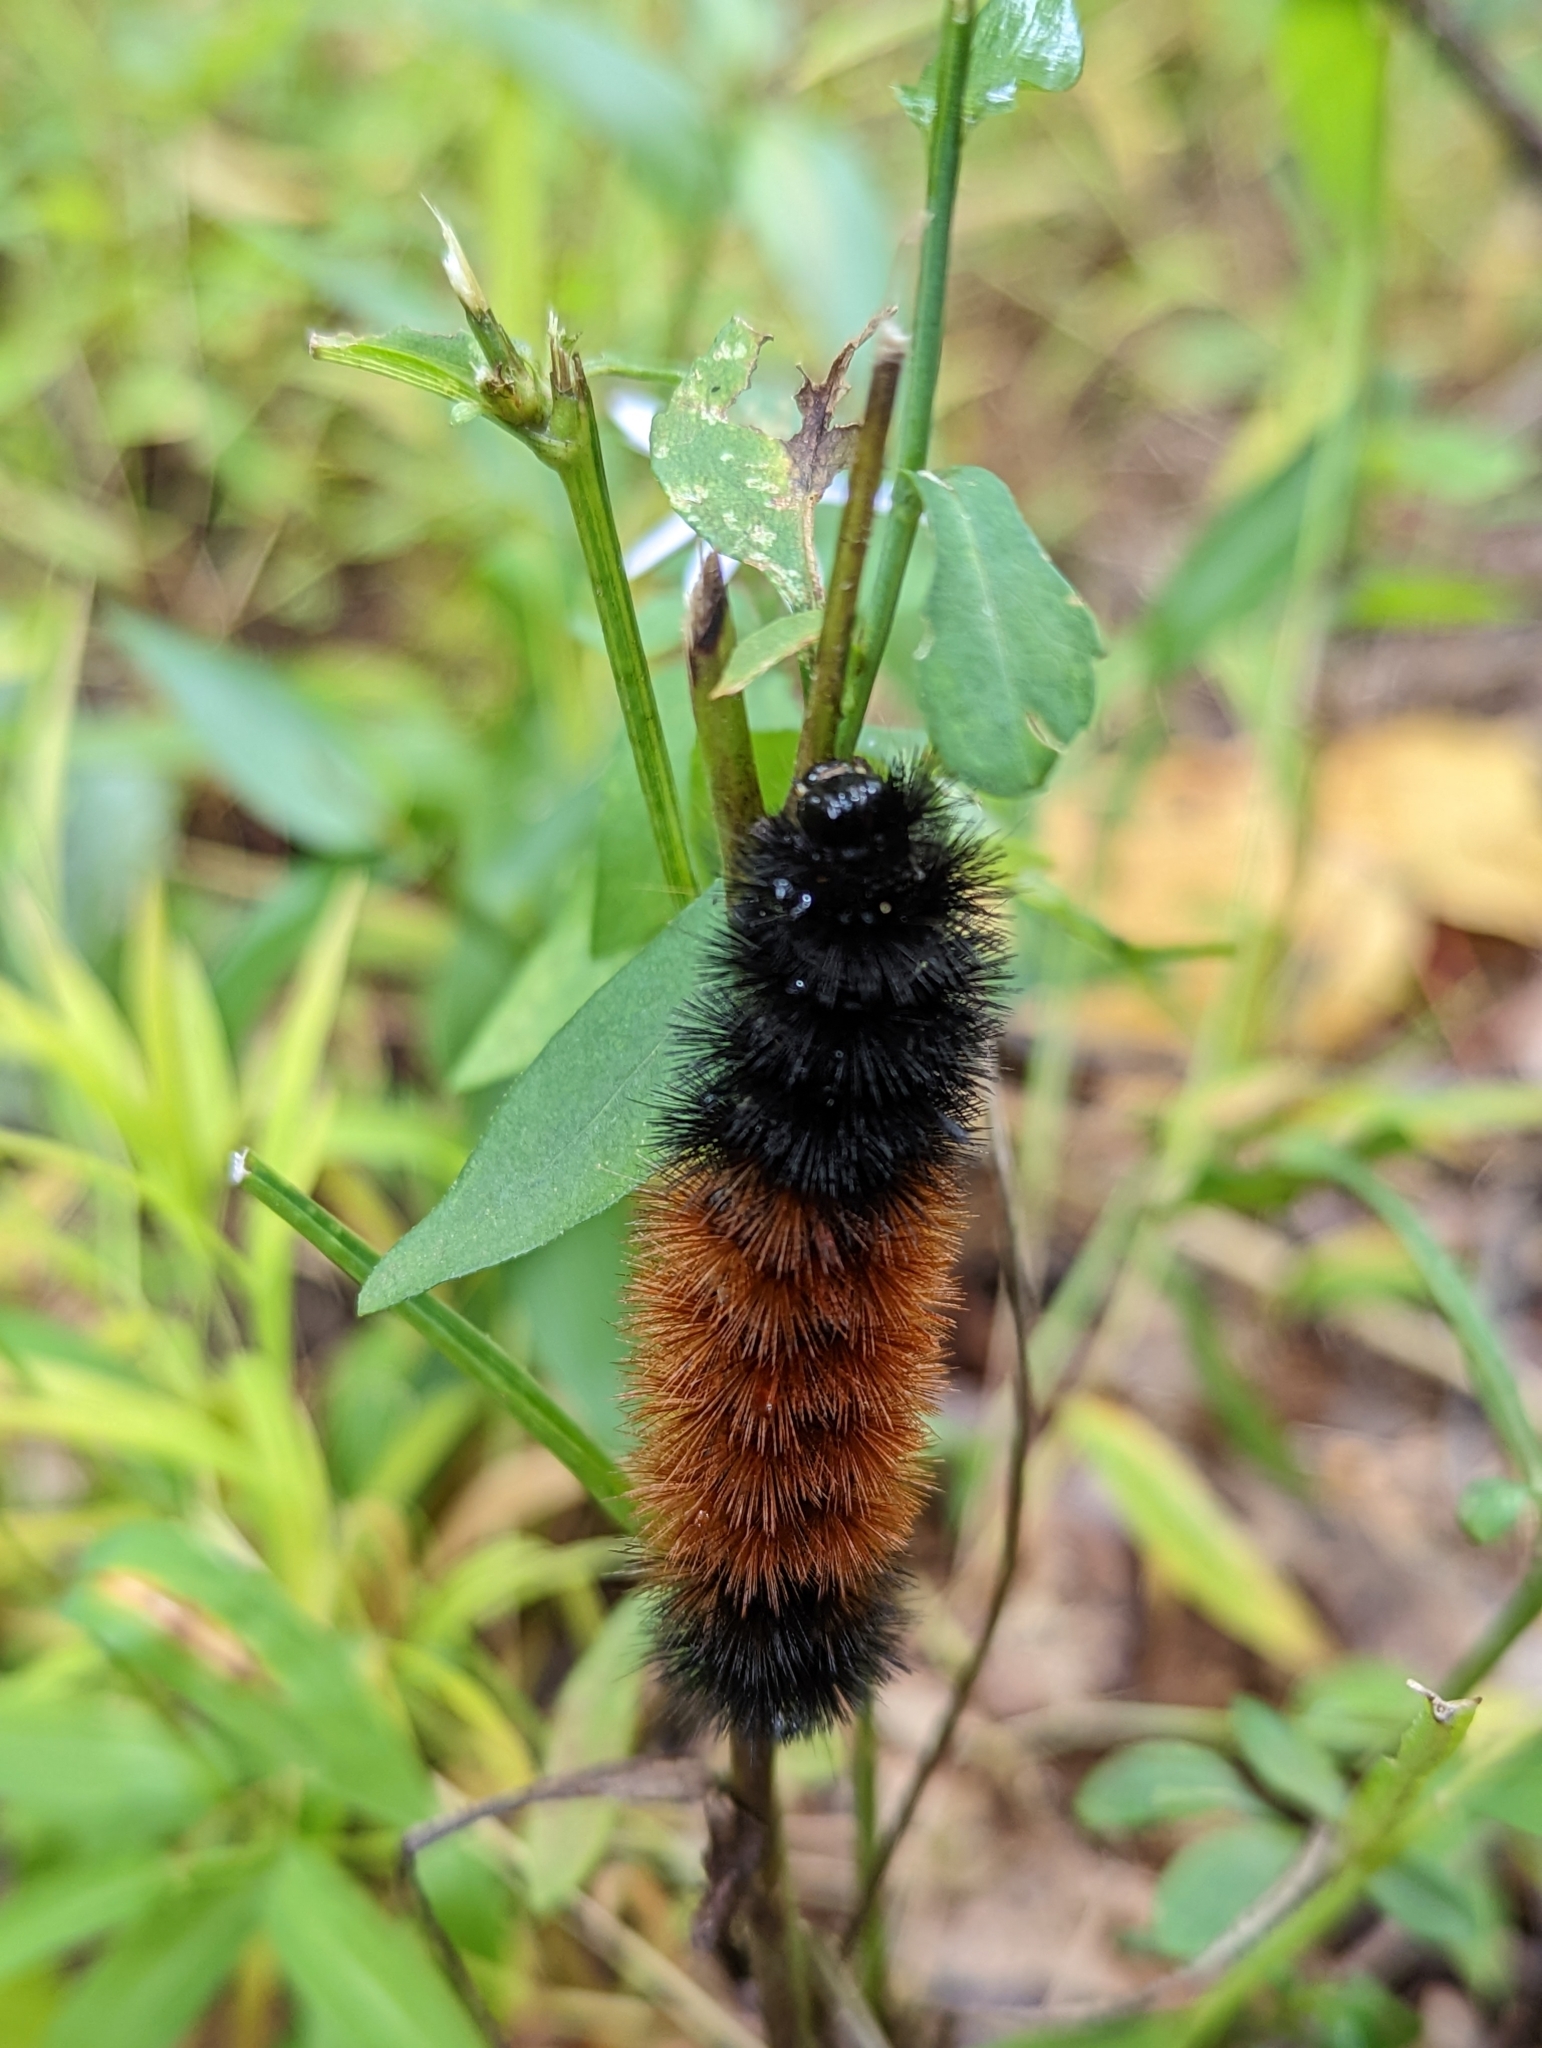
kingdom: Animalia
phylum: Arthropoda
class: Insecta
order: Lepidoptera
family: Erebidae
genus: Pyrrharctia
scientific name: Pyrrharctia isabella
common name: Isabella tiger moth
